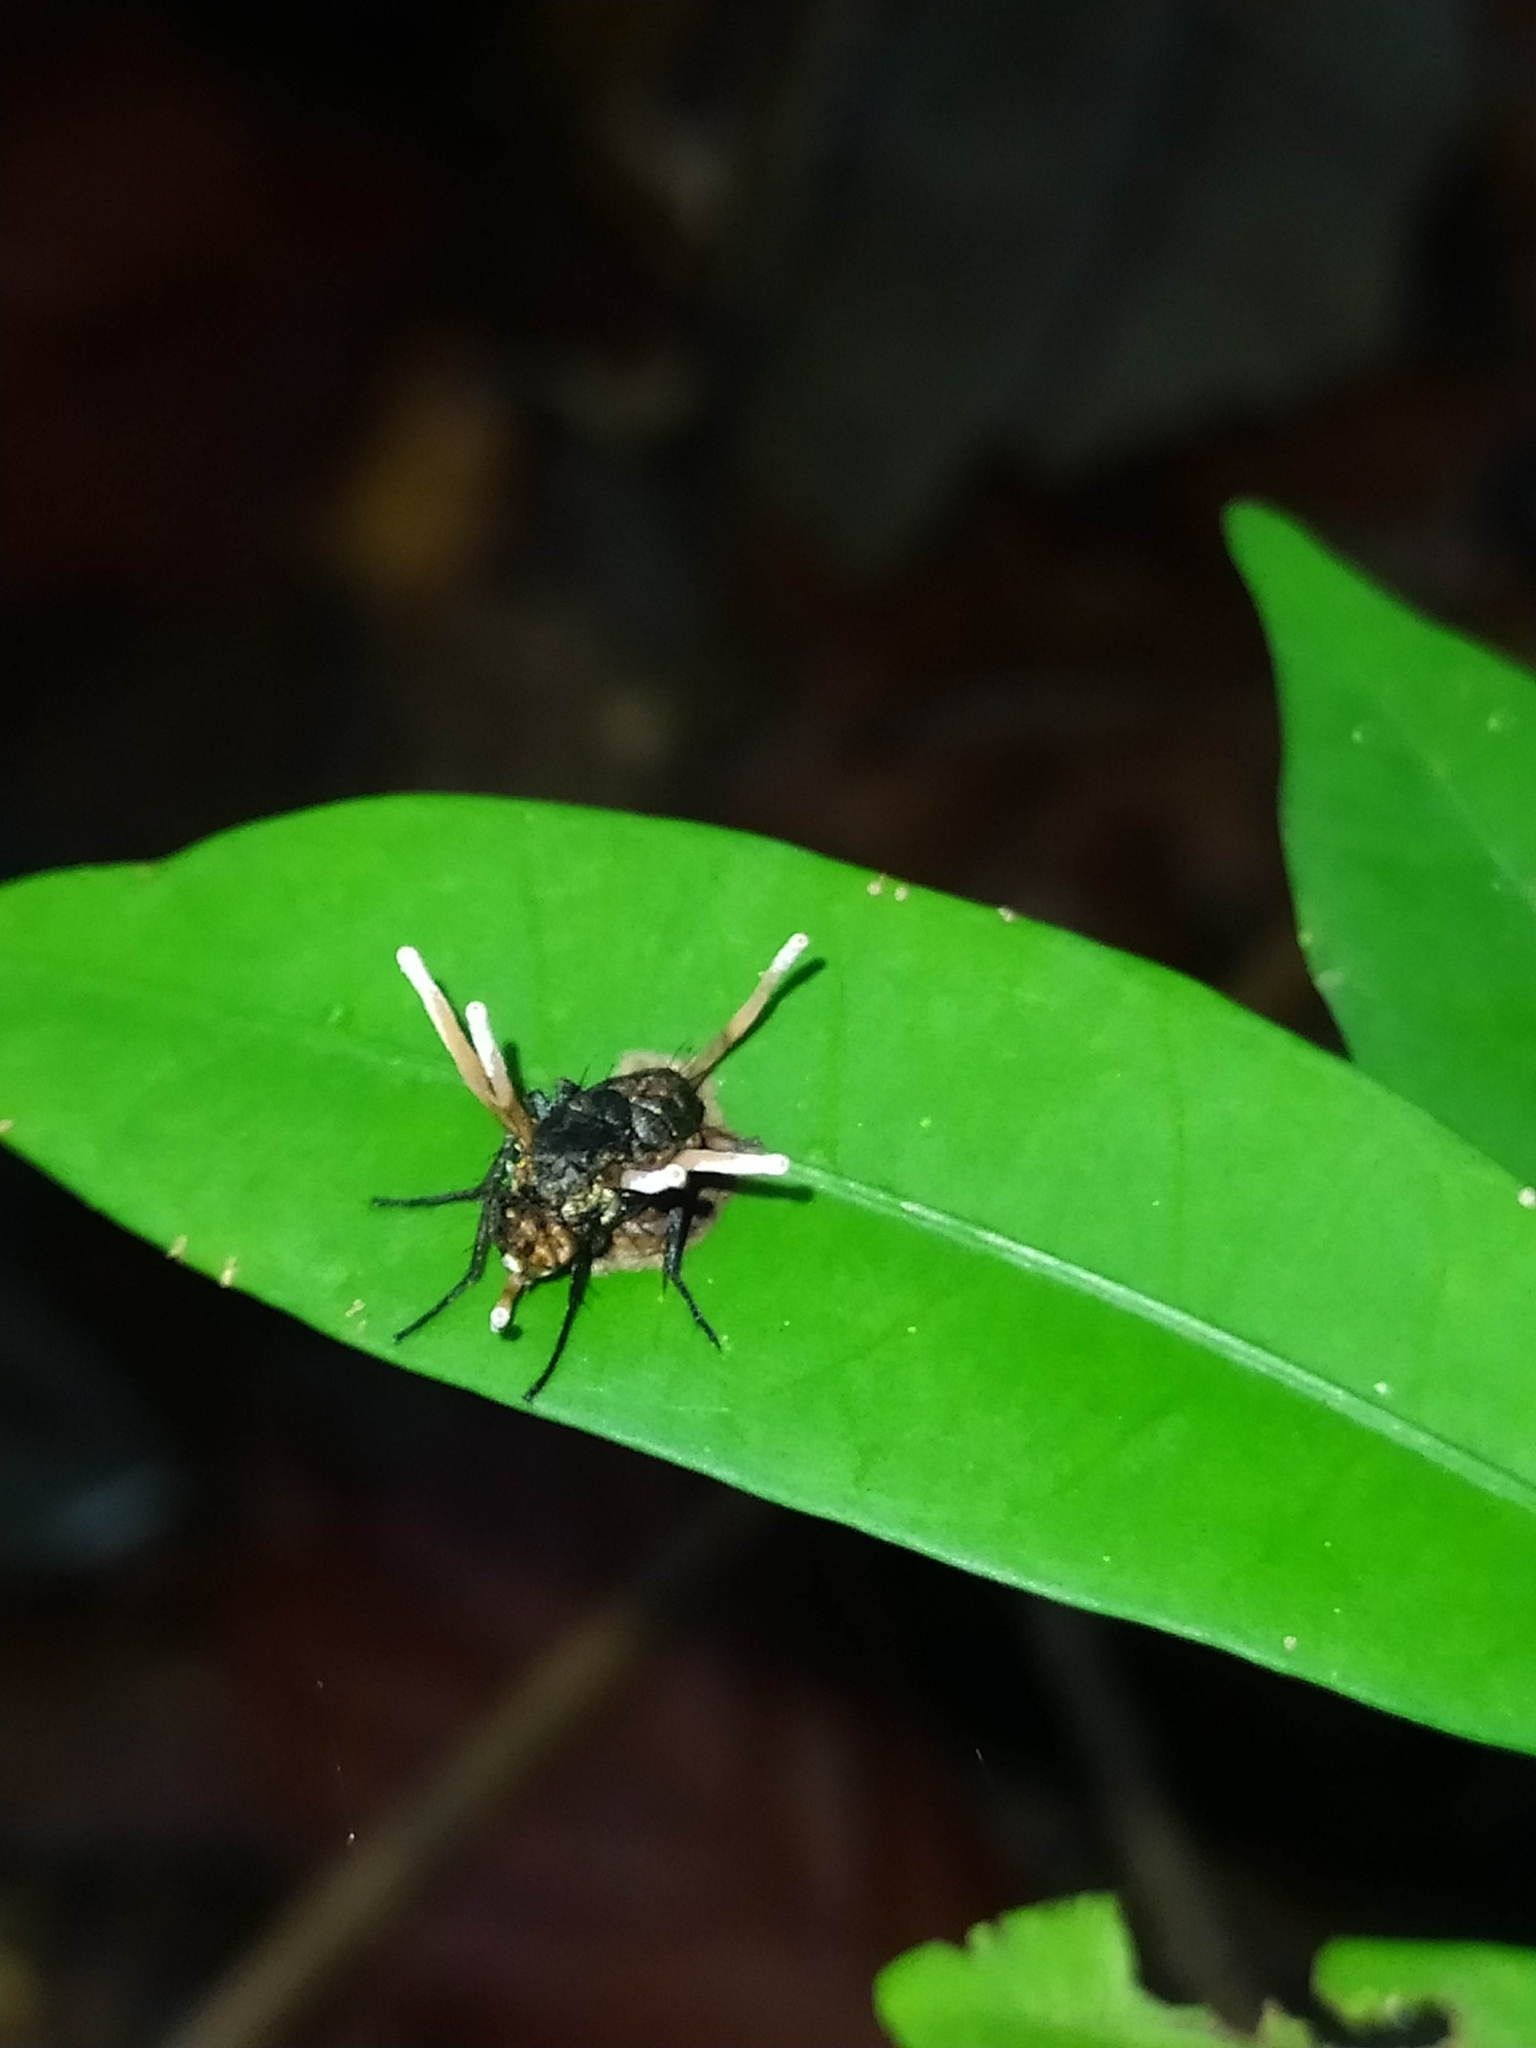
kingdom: Fungi
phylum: Ascomycota
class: Sordariomycetes
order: Hypocreales
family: Ophiocordycipitaceae
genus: Ophiocordyceps
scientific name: Ophiocordyceps dipterigena
